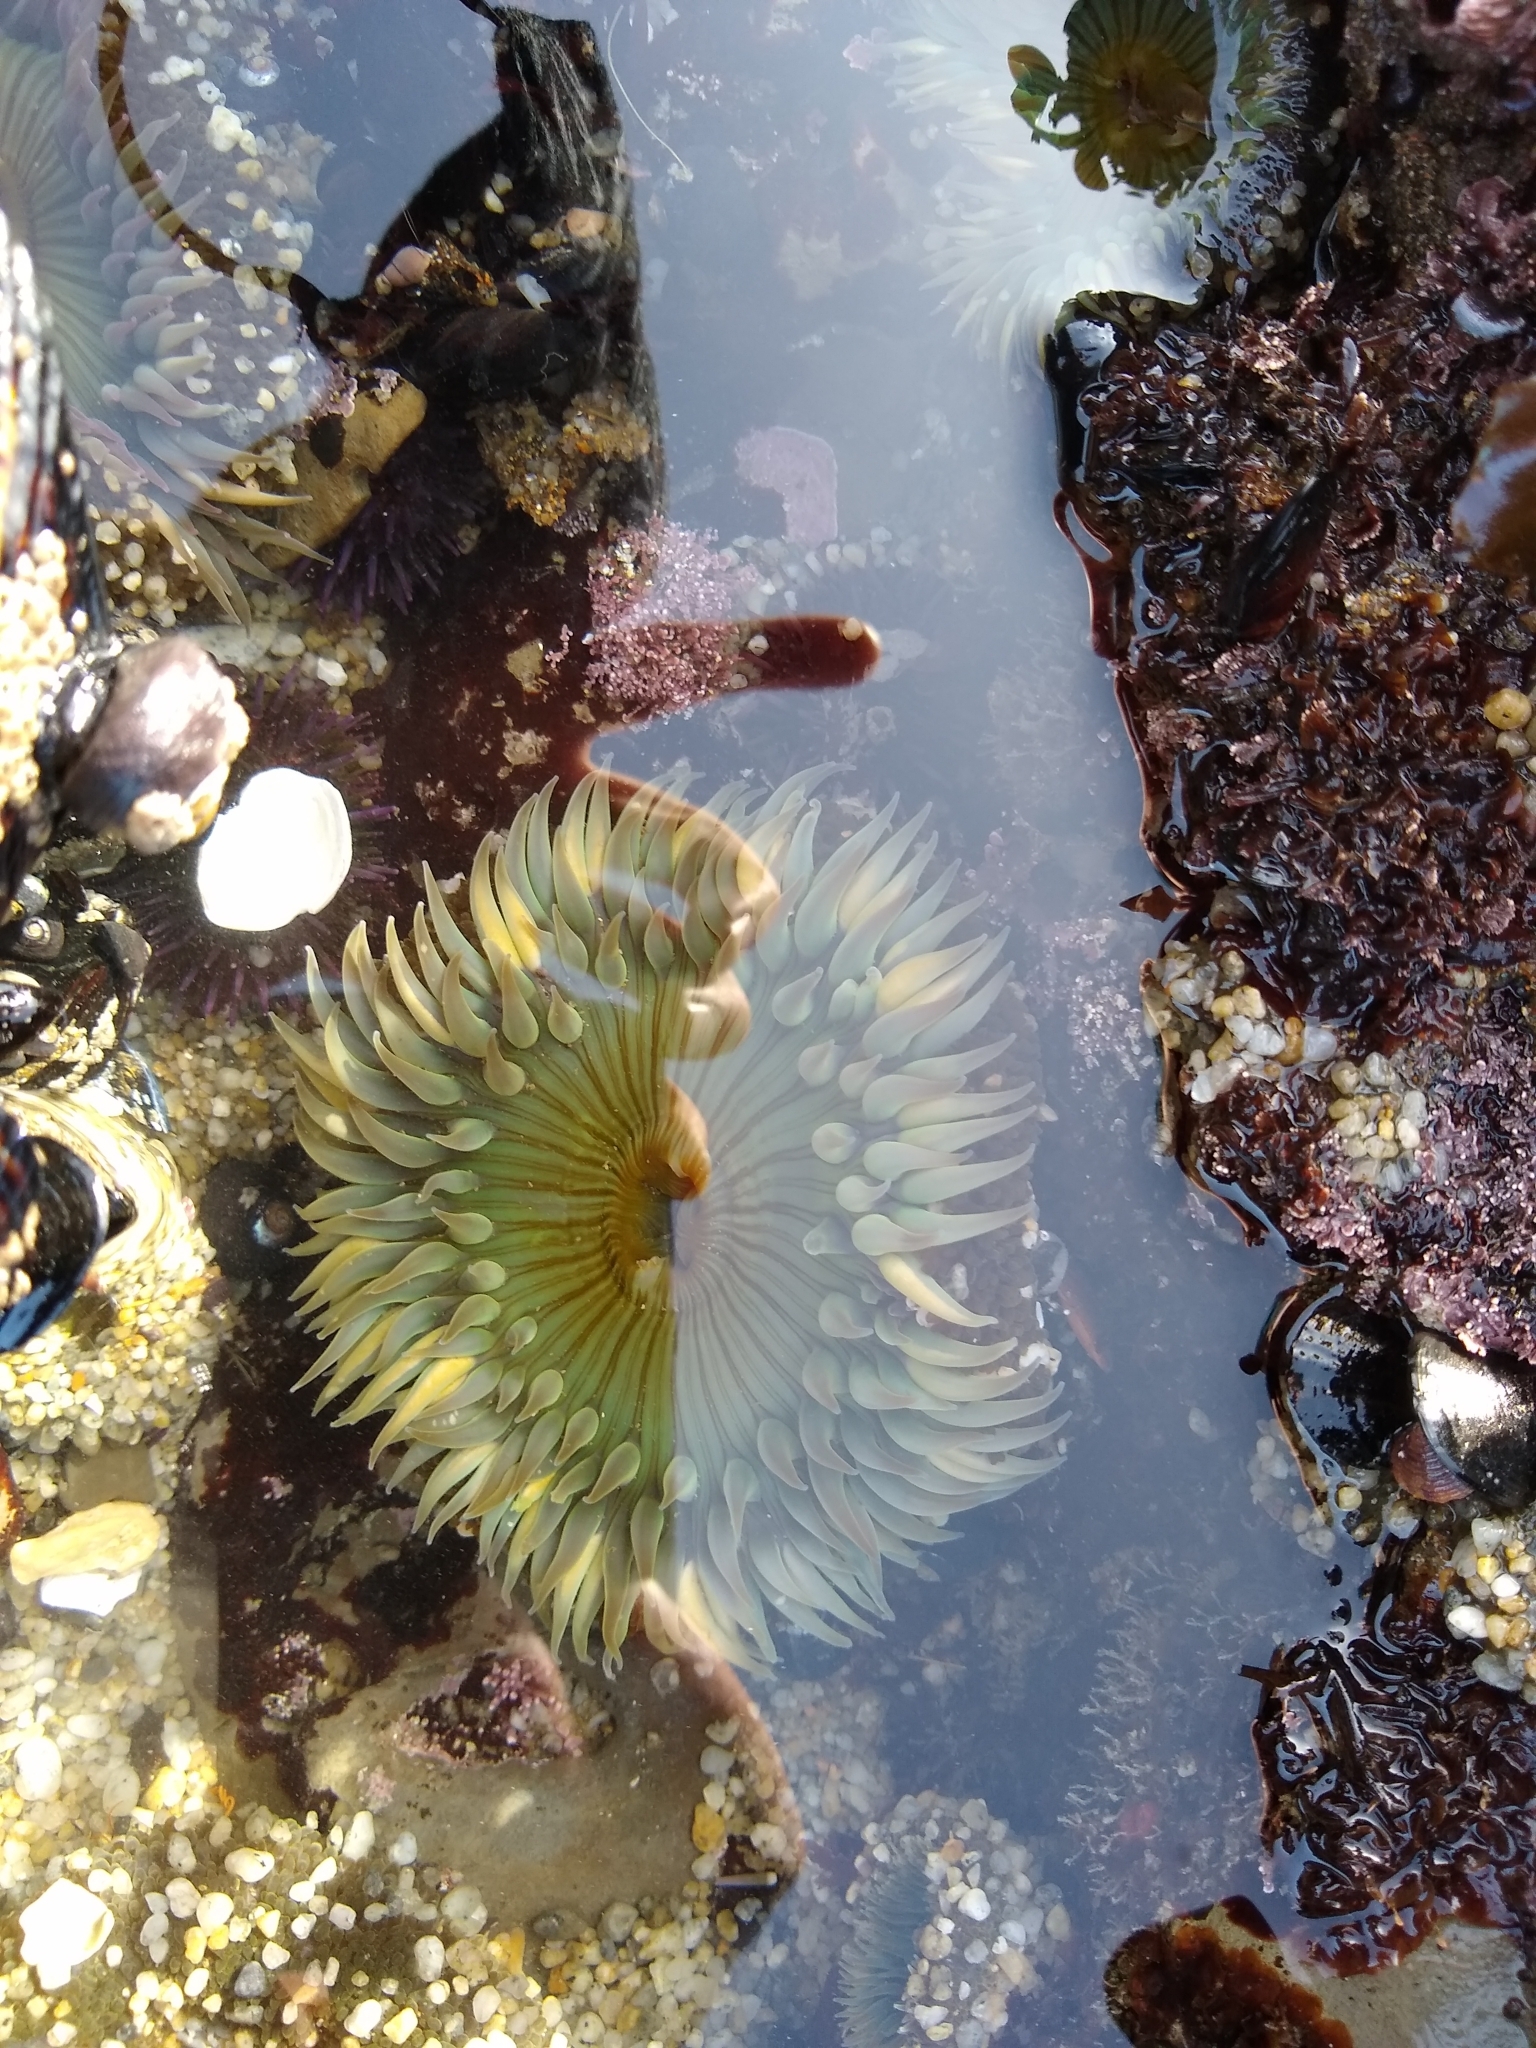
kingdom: Animalia
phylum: Cnidaria
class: Anthozoa
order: Actiniaria
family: Actiniidae
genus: Anthopleura
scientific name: Anthopleura sola
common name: Sun anemone
